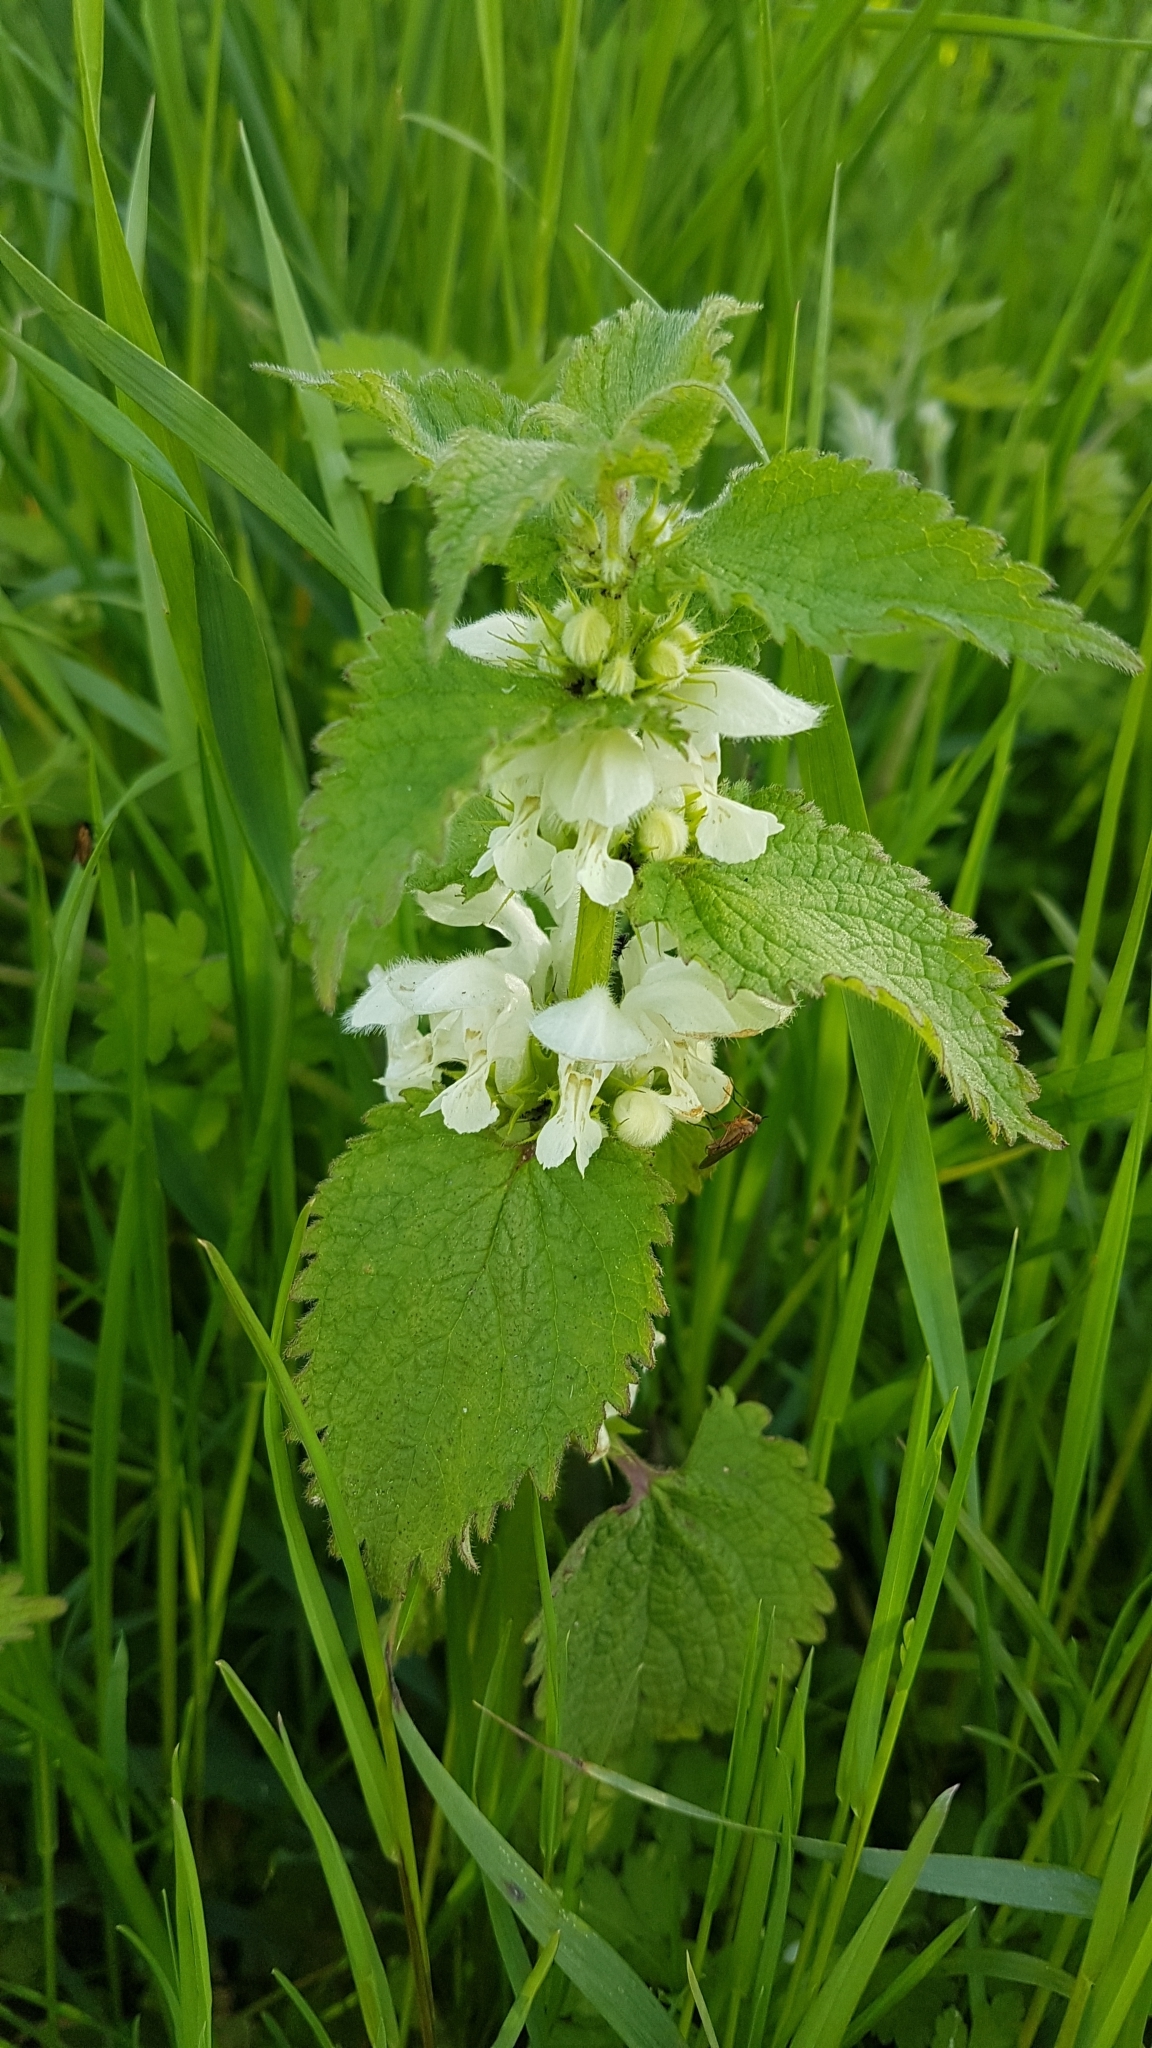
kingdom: Plantae
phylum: Tracheophyta
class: Magnoliopsida
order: Lamiales
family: Lamiaceae
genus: Lamium
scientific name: Lamium album
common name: White dead-nettle
